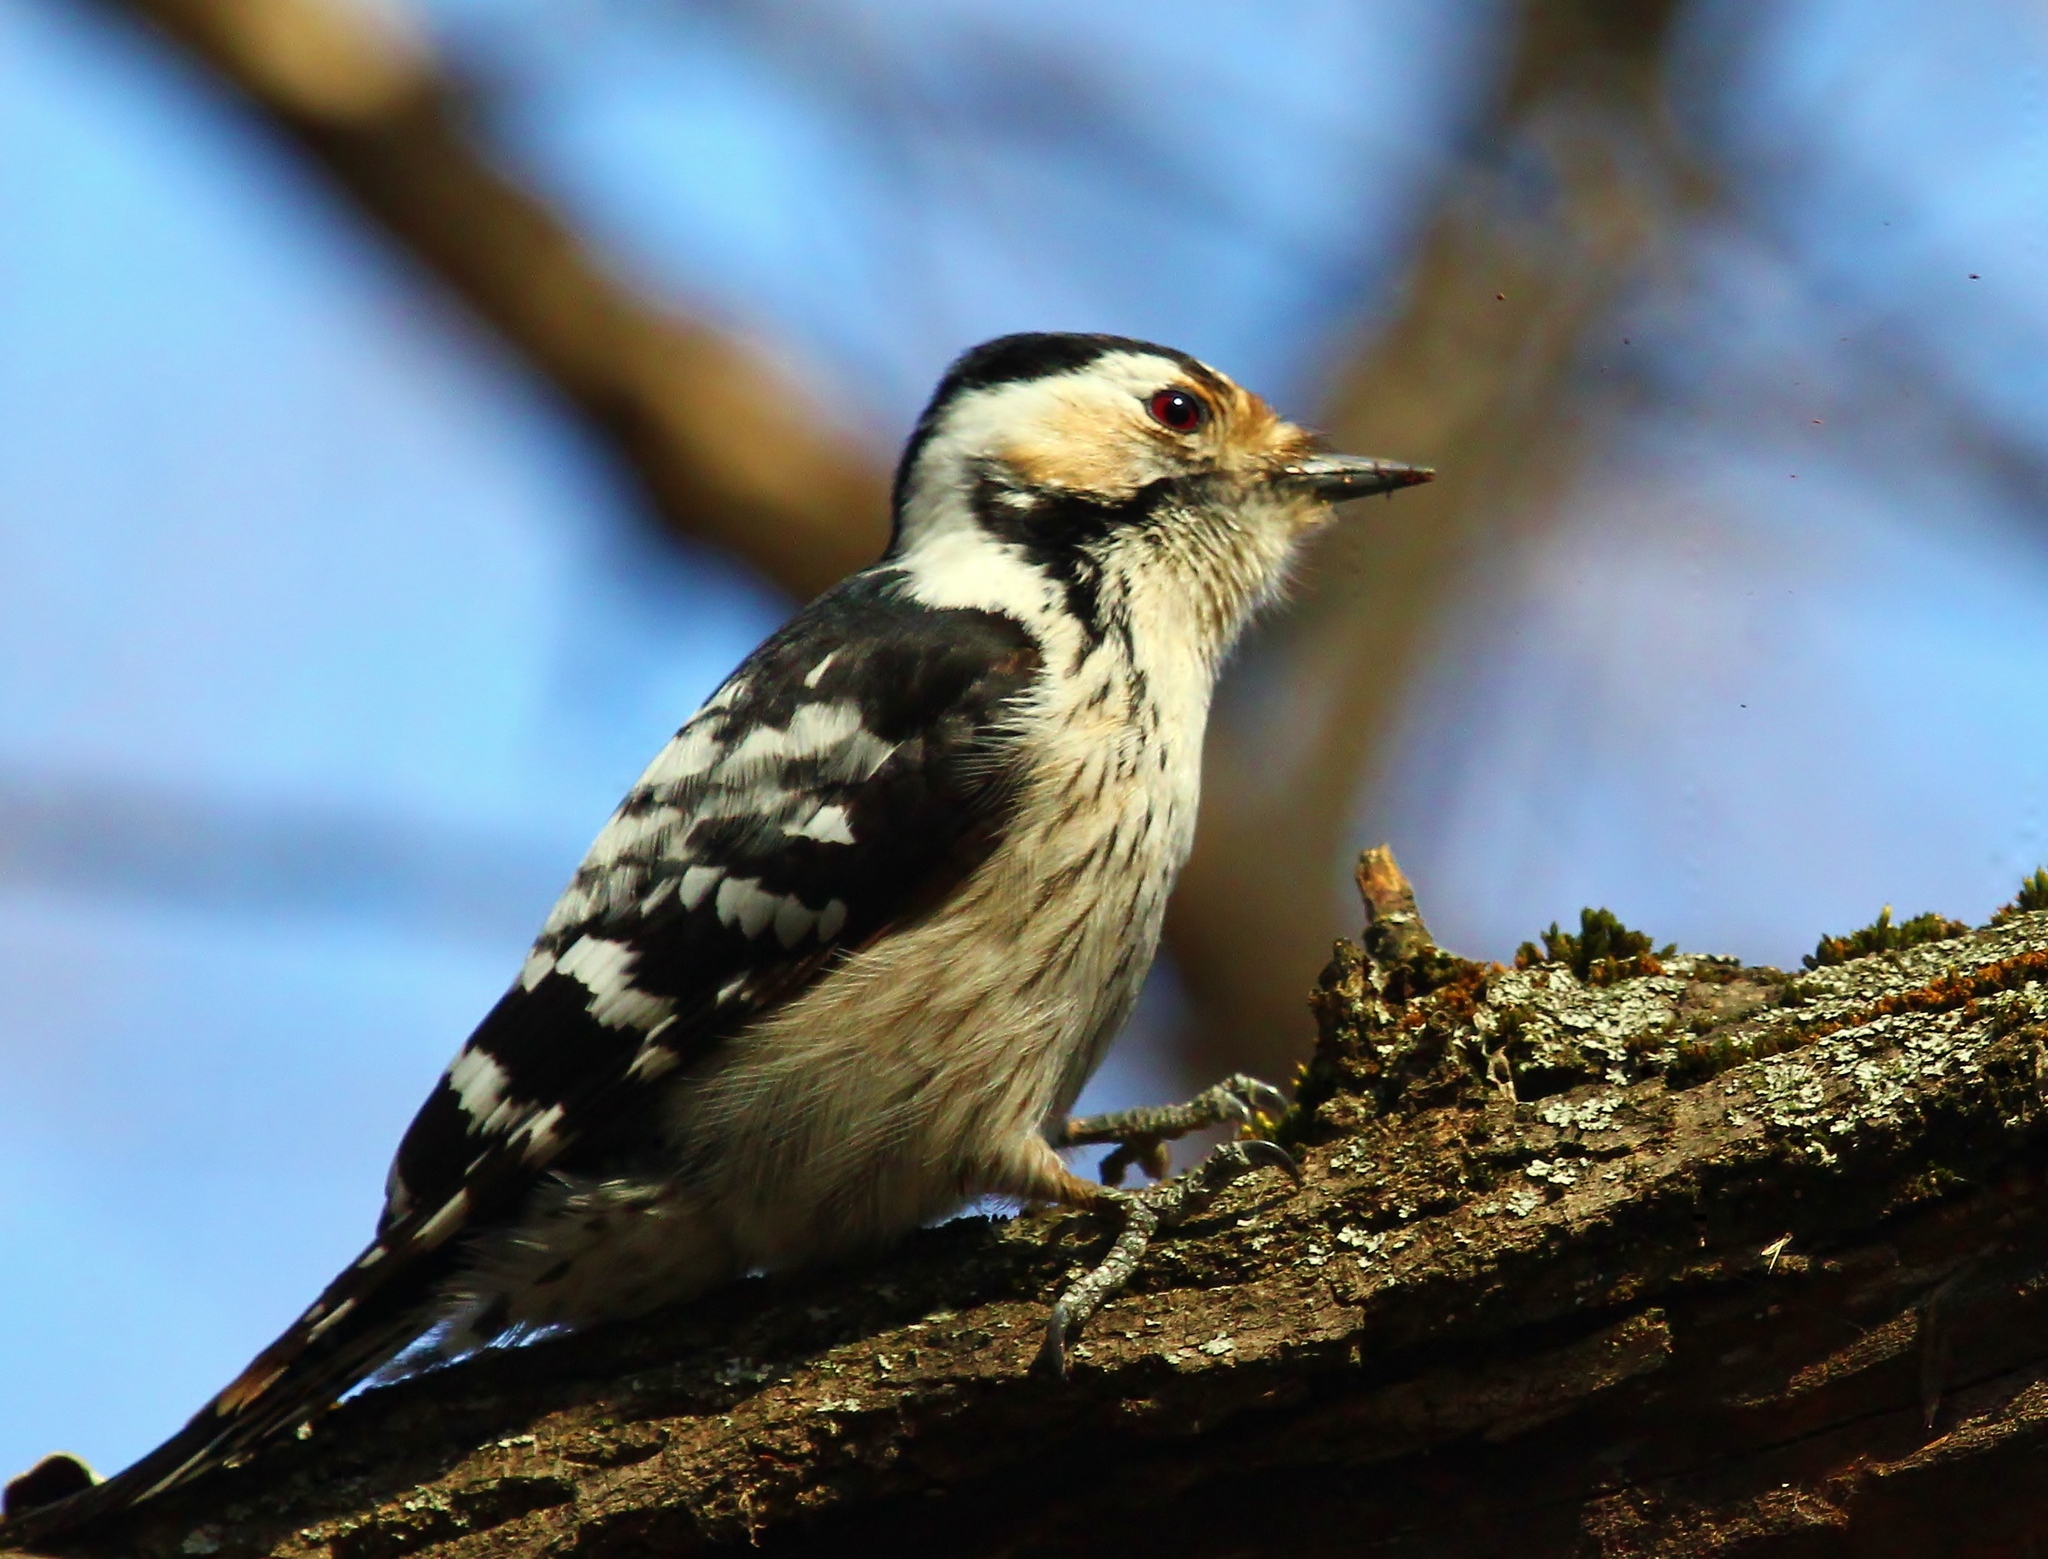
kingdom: Animalia
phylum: Chordata
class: Aves
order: Piciformes
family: Picidae
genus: Dryobates
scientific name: Dryobates minor
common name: Lesser spotted woodpecker
